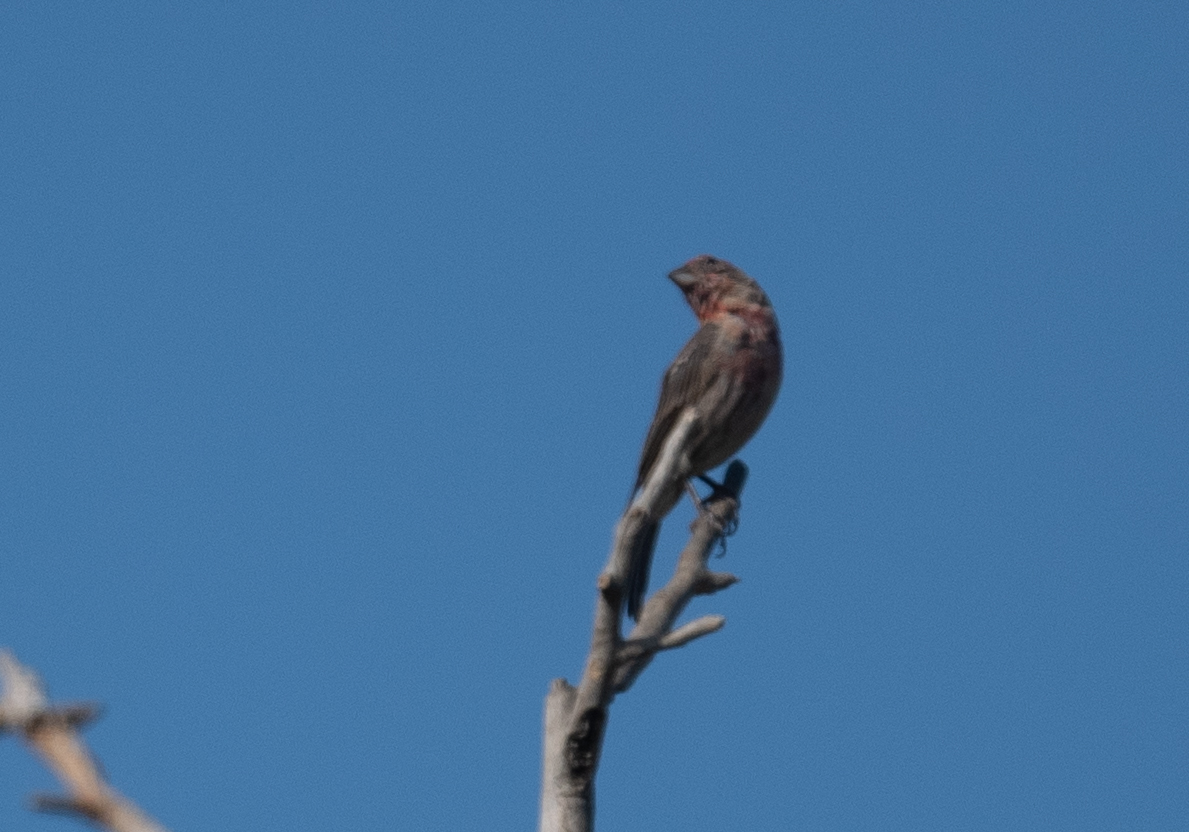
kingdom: Animalia
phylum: Chordata
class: Aves
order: Passeriformes
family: Fringillidae
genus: Haemorhous
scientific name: Haemorhous mexicanus
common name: House finch
